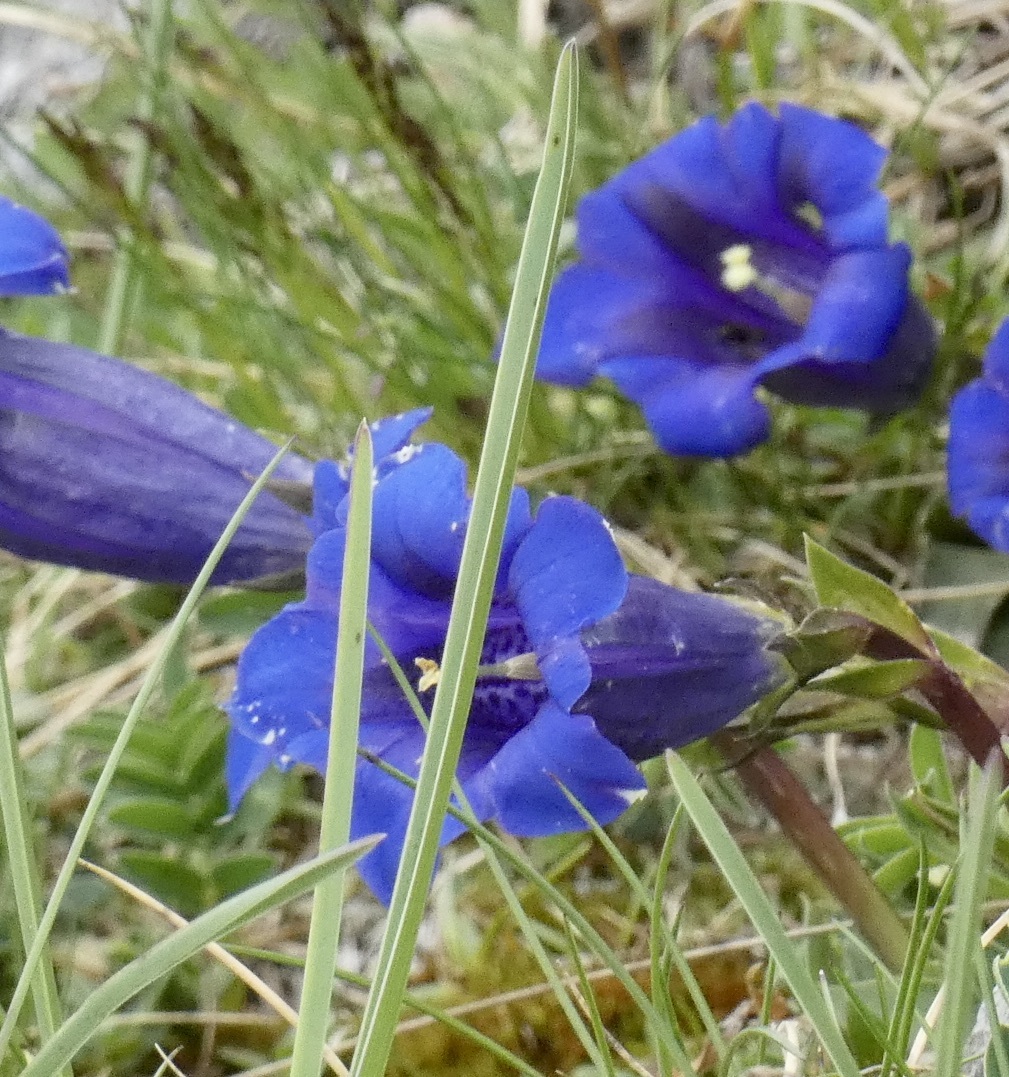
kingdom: Plantae
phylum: Tracheophyta
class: Magnoliopsida
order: Gentianales
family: Gentianaceae
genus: Gentiana
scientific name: Gentiana clusii
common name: Trumpet gentian
